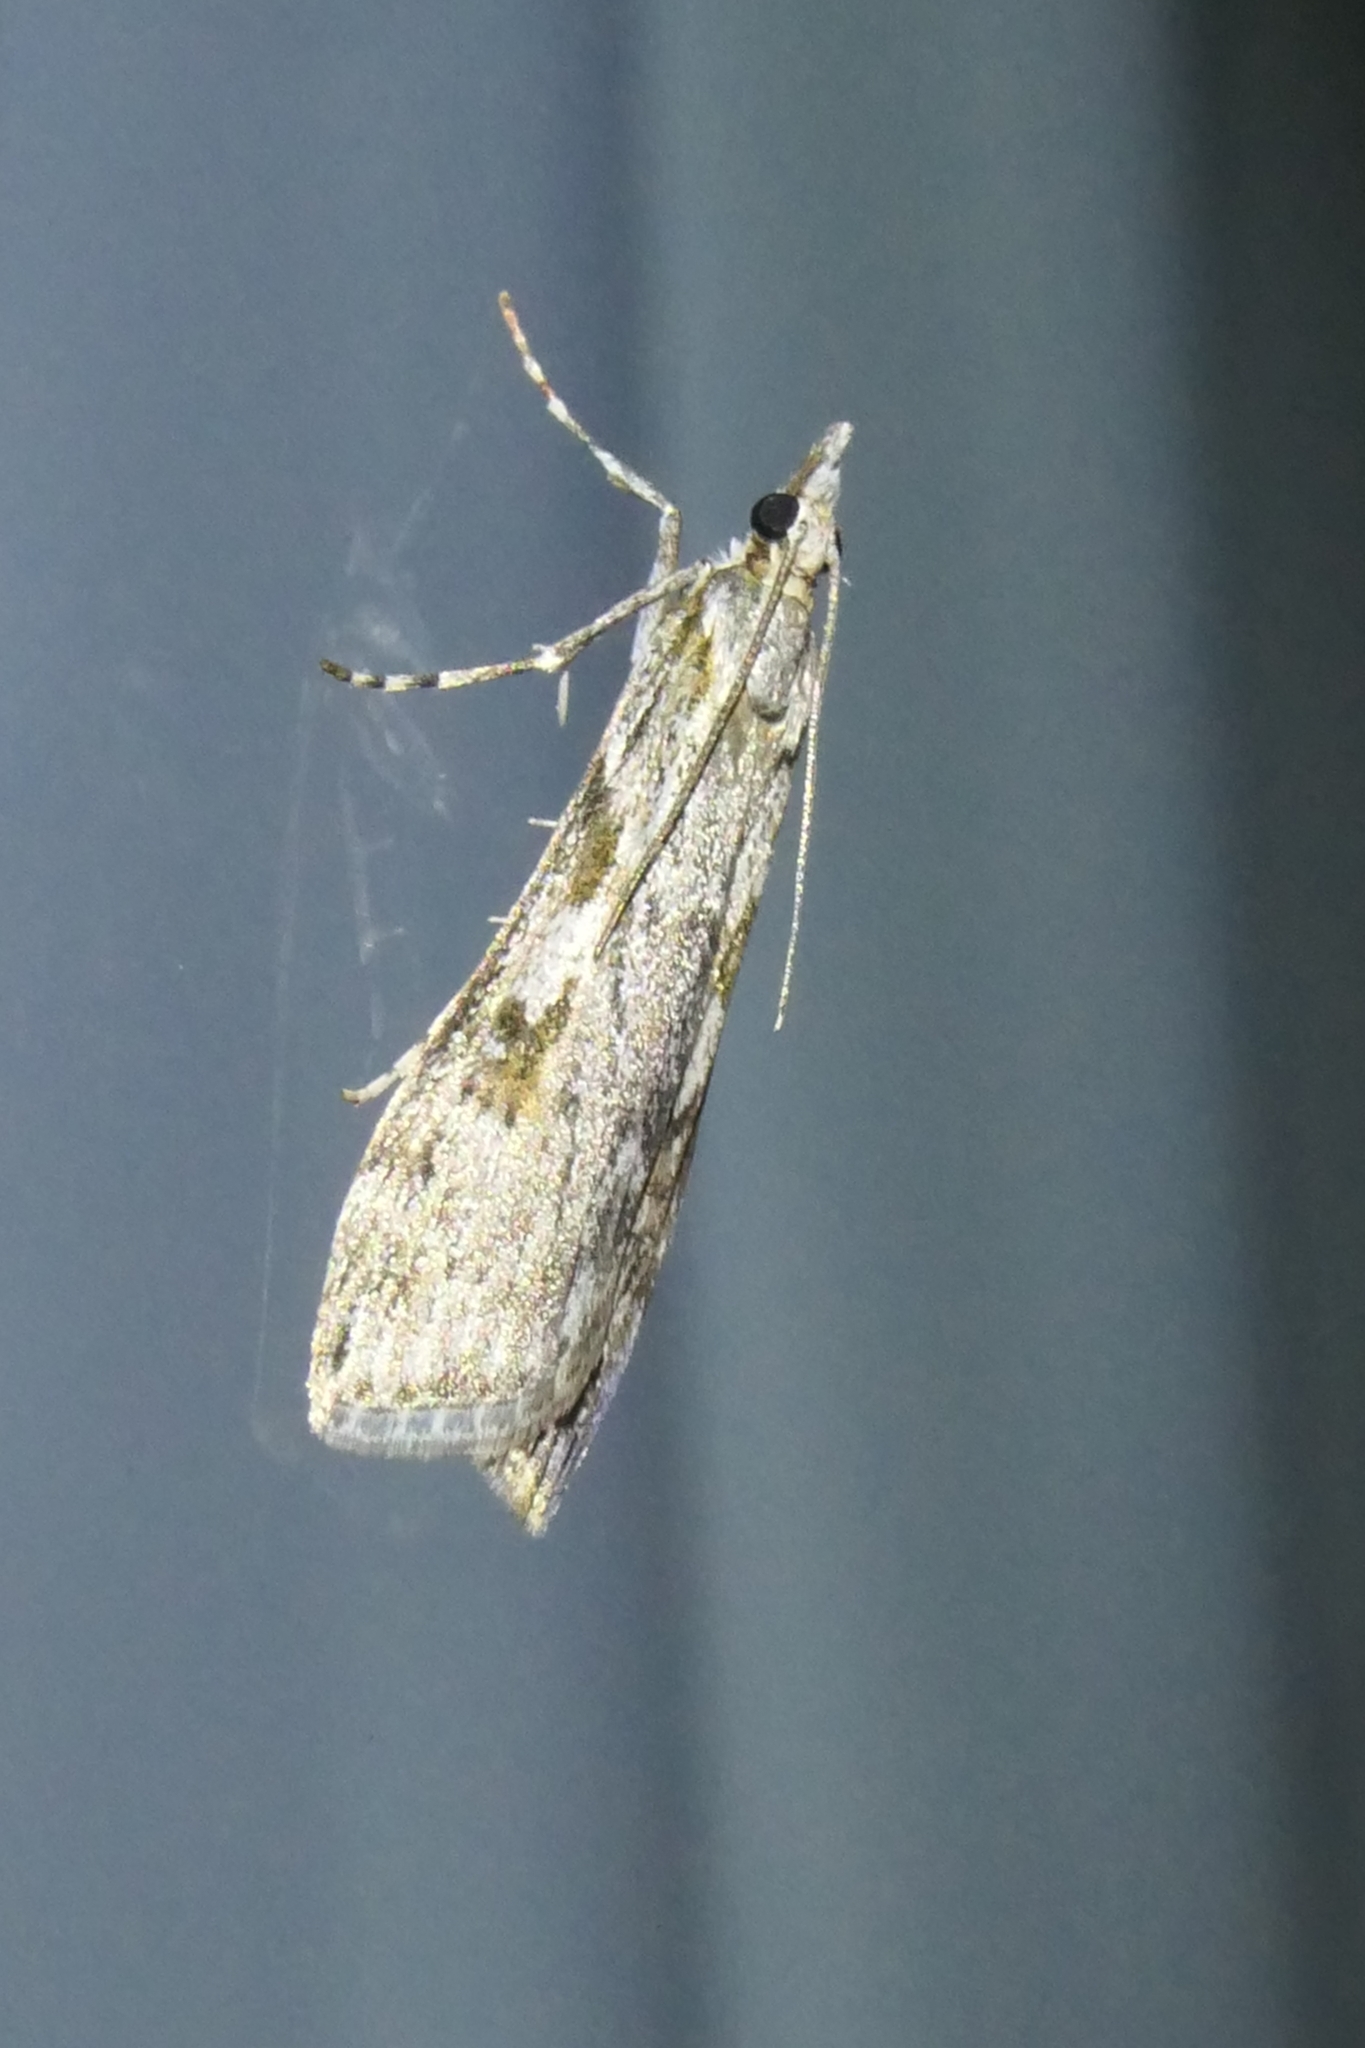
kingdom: Animalia
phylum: Arthropoda
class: Insecta
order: Lepidoptera
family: Crambidae
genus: Scoparia
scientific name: Scoparia halopis
